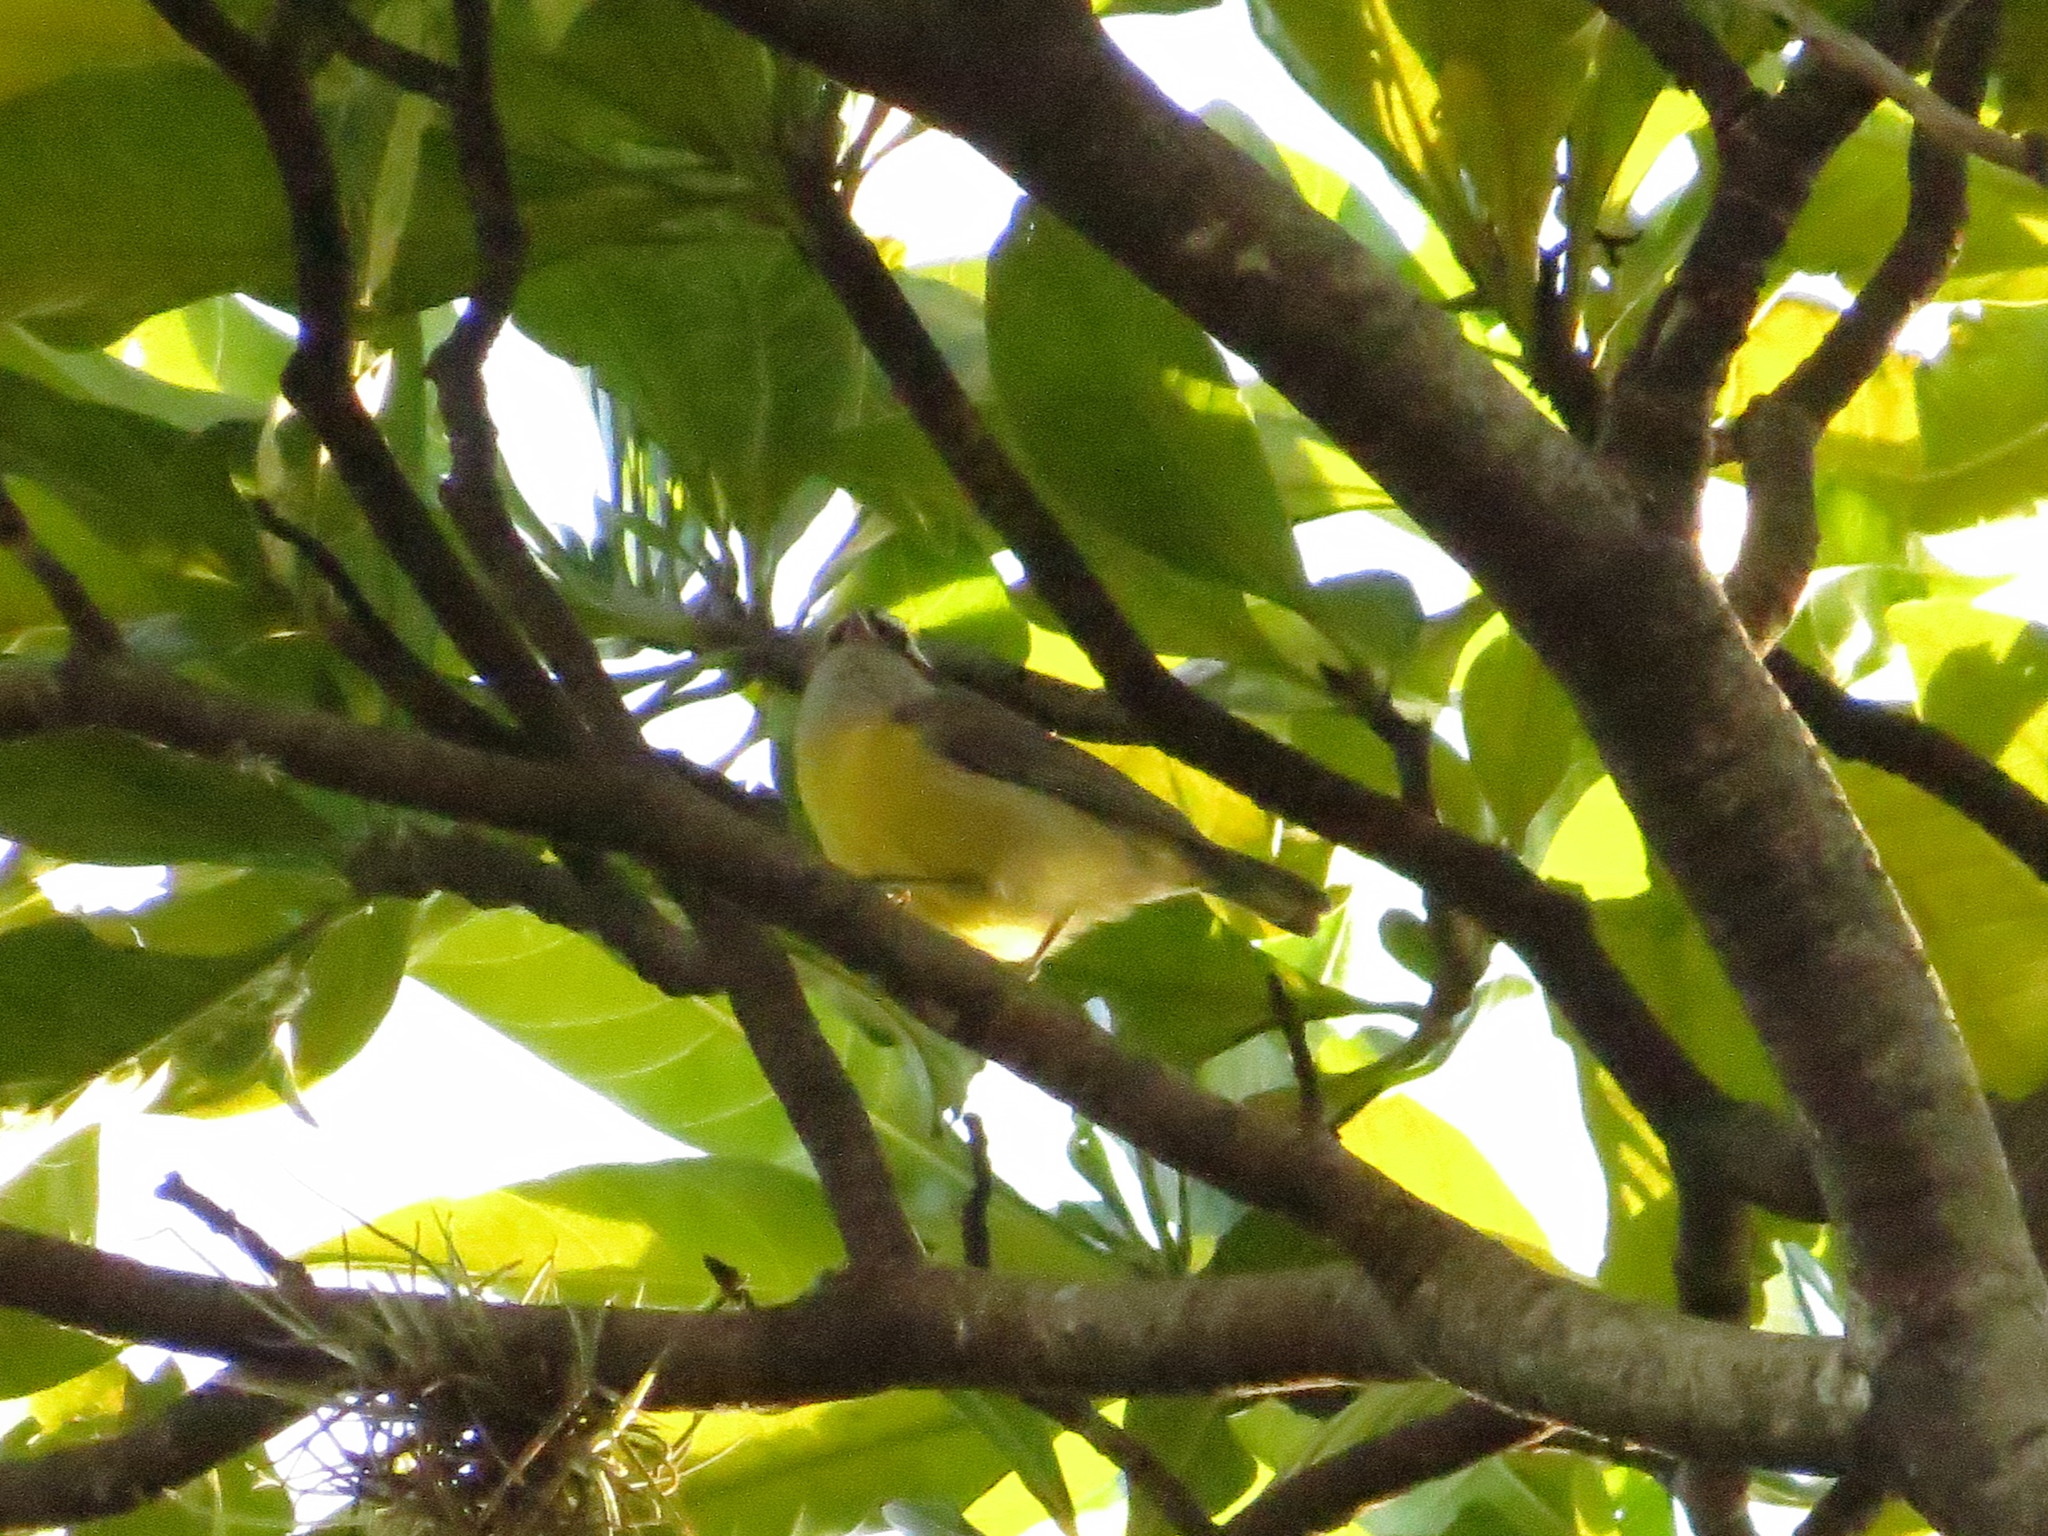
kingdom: Animalia
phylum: Chordata
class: Aves
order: Passeriformes
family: Thraupidae
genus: Coereba
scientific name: Coereba flaveola
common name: Bananaquit
